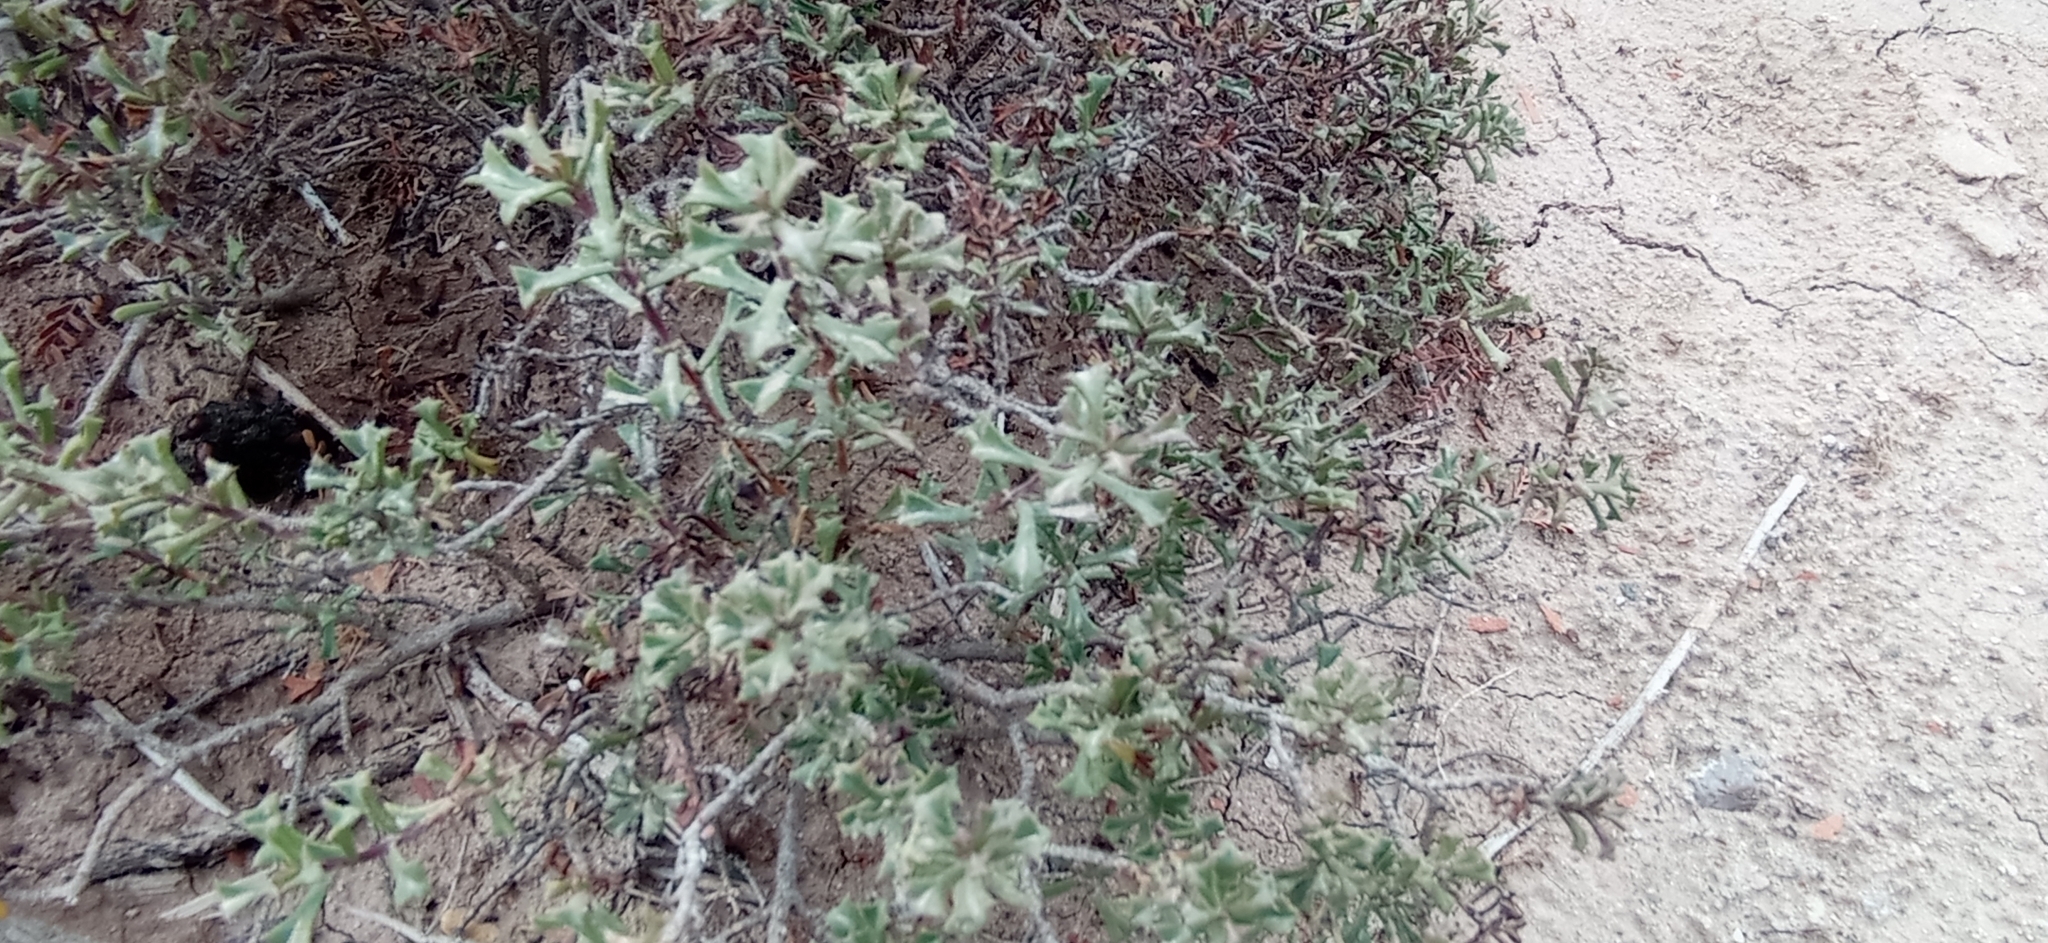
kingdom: Plantae
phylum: Tracheophyta
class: Magnoliopsida
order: Boraginales
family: Ehretiaceae
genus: Ehretia
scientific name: Ehretia cortesia
